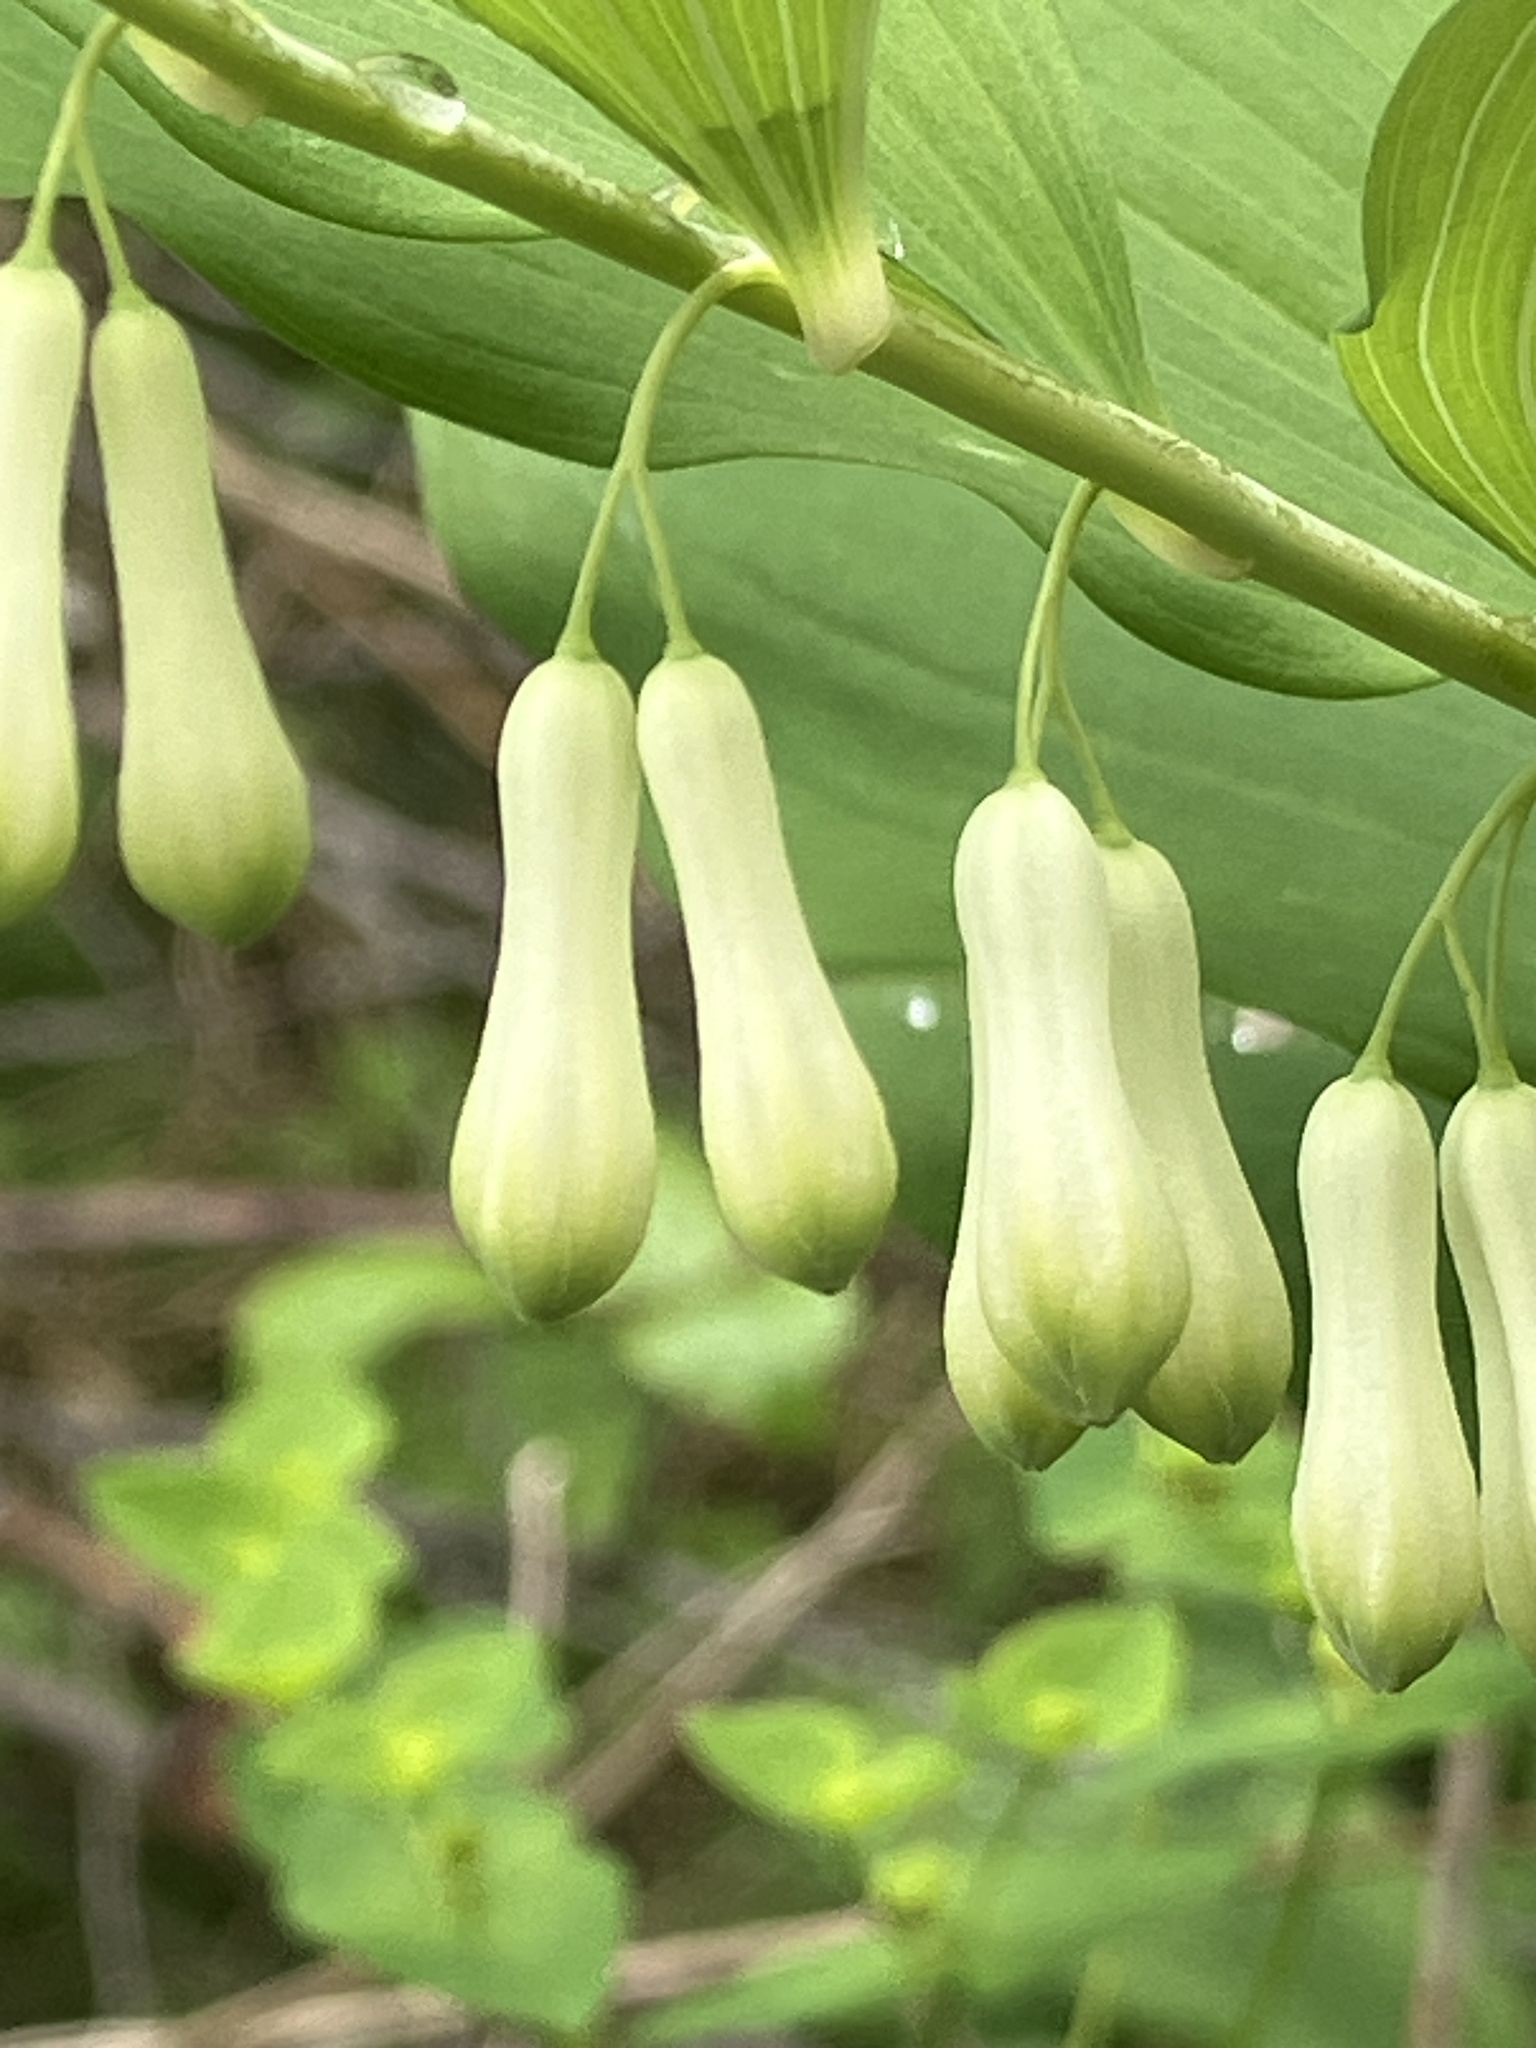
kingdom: Plantae
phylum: Tracheophyta
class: Liliopsida
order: Asparagales
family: Asparagaceae
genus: Polygonatum
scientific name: Polygonatum multiflorum
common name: Solomon's-seal
